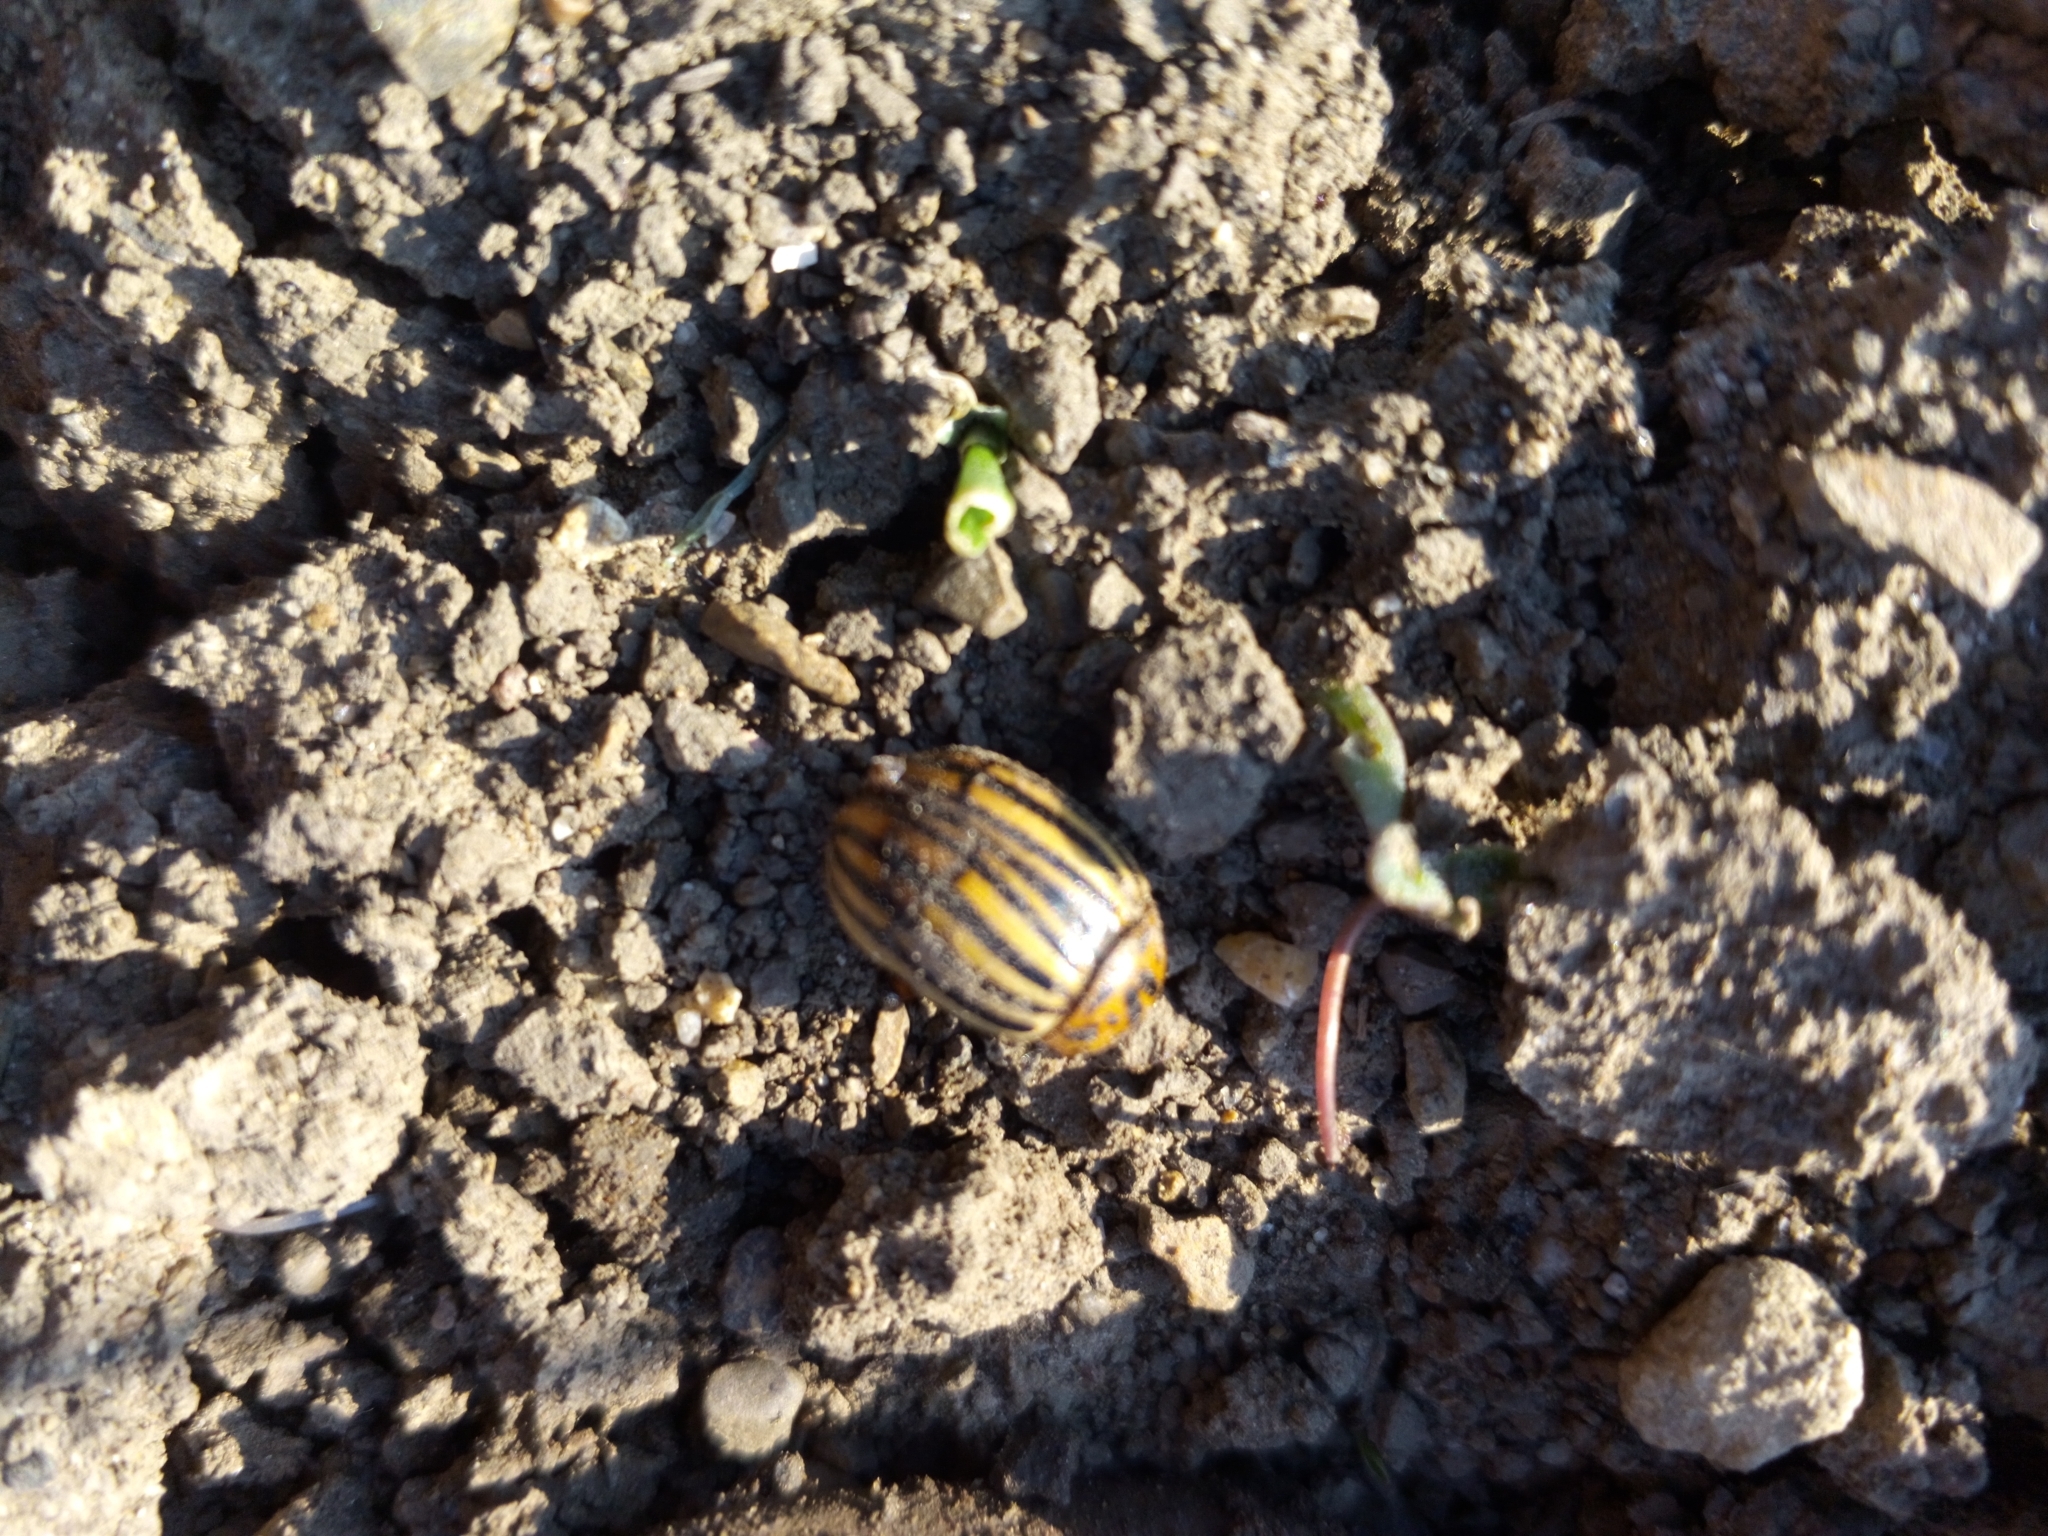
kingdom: Animalia
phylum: Arthropoda
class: Insecta
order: Coleoptera
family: Chrysomelidae
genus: Leptinotarsa
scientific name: Leptinotarsa decemlineata
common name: Colorado potato beetle
